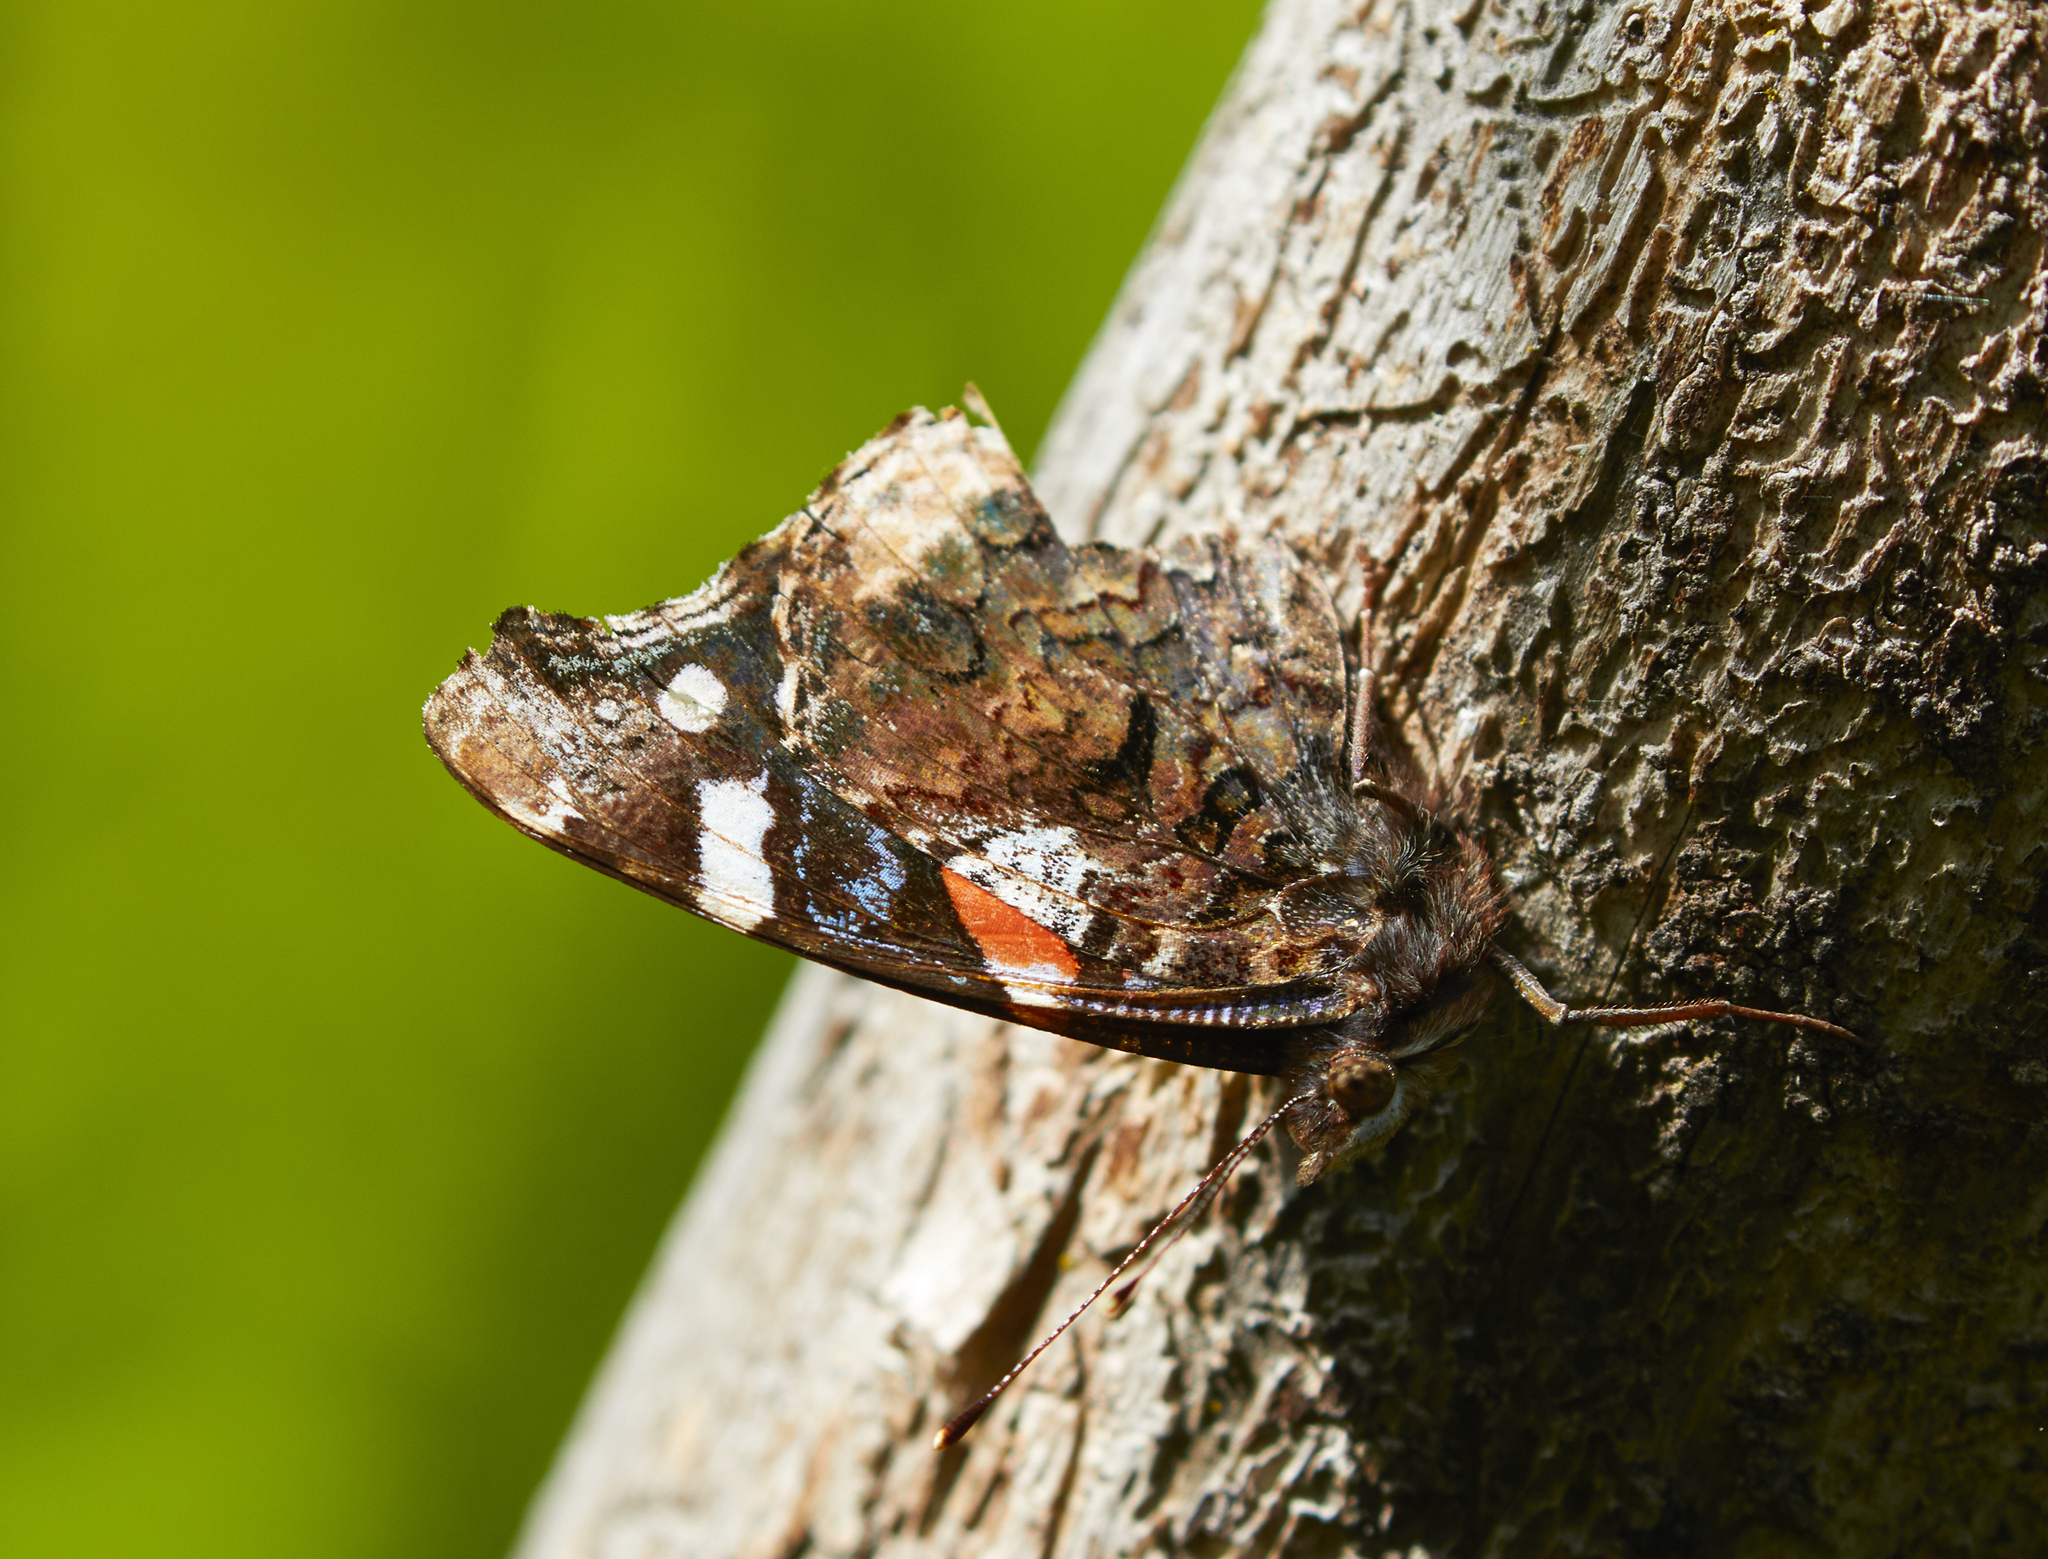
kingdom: Animalia
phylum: Arthropoda
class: Insecta
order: Lepidoptera
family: Nymphalidae
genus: Vanessa
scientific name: Vanessa atalanta
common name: Red admiral
